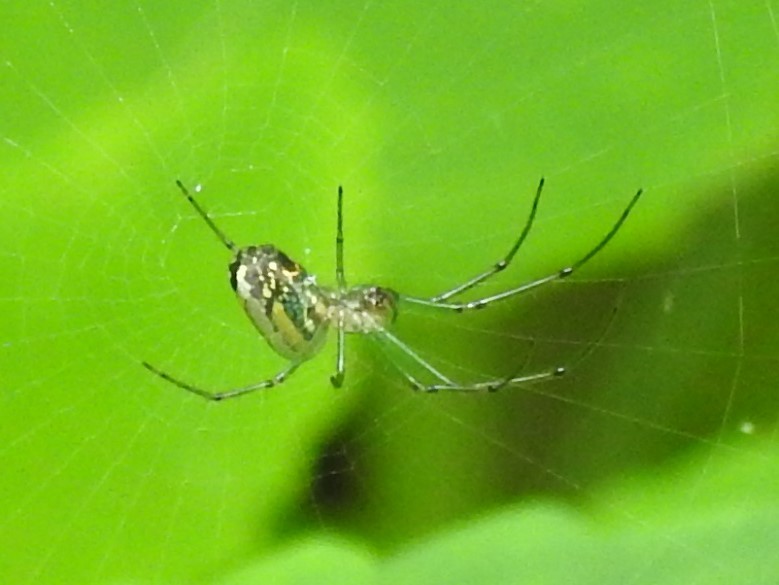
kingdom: Animalia
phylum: Arthropoda
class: Arachnida
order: Araneae
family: Tetragnathidae
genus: Leucauge
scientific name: Leucauge venusta
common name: Longjawed orb weavers
